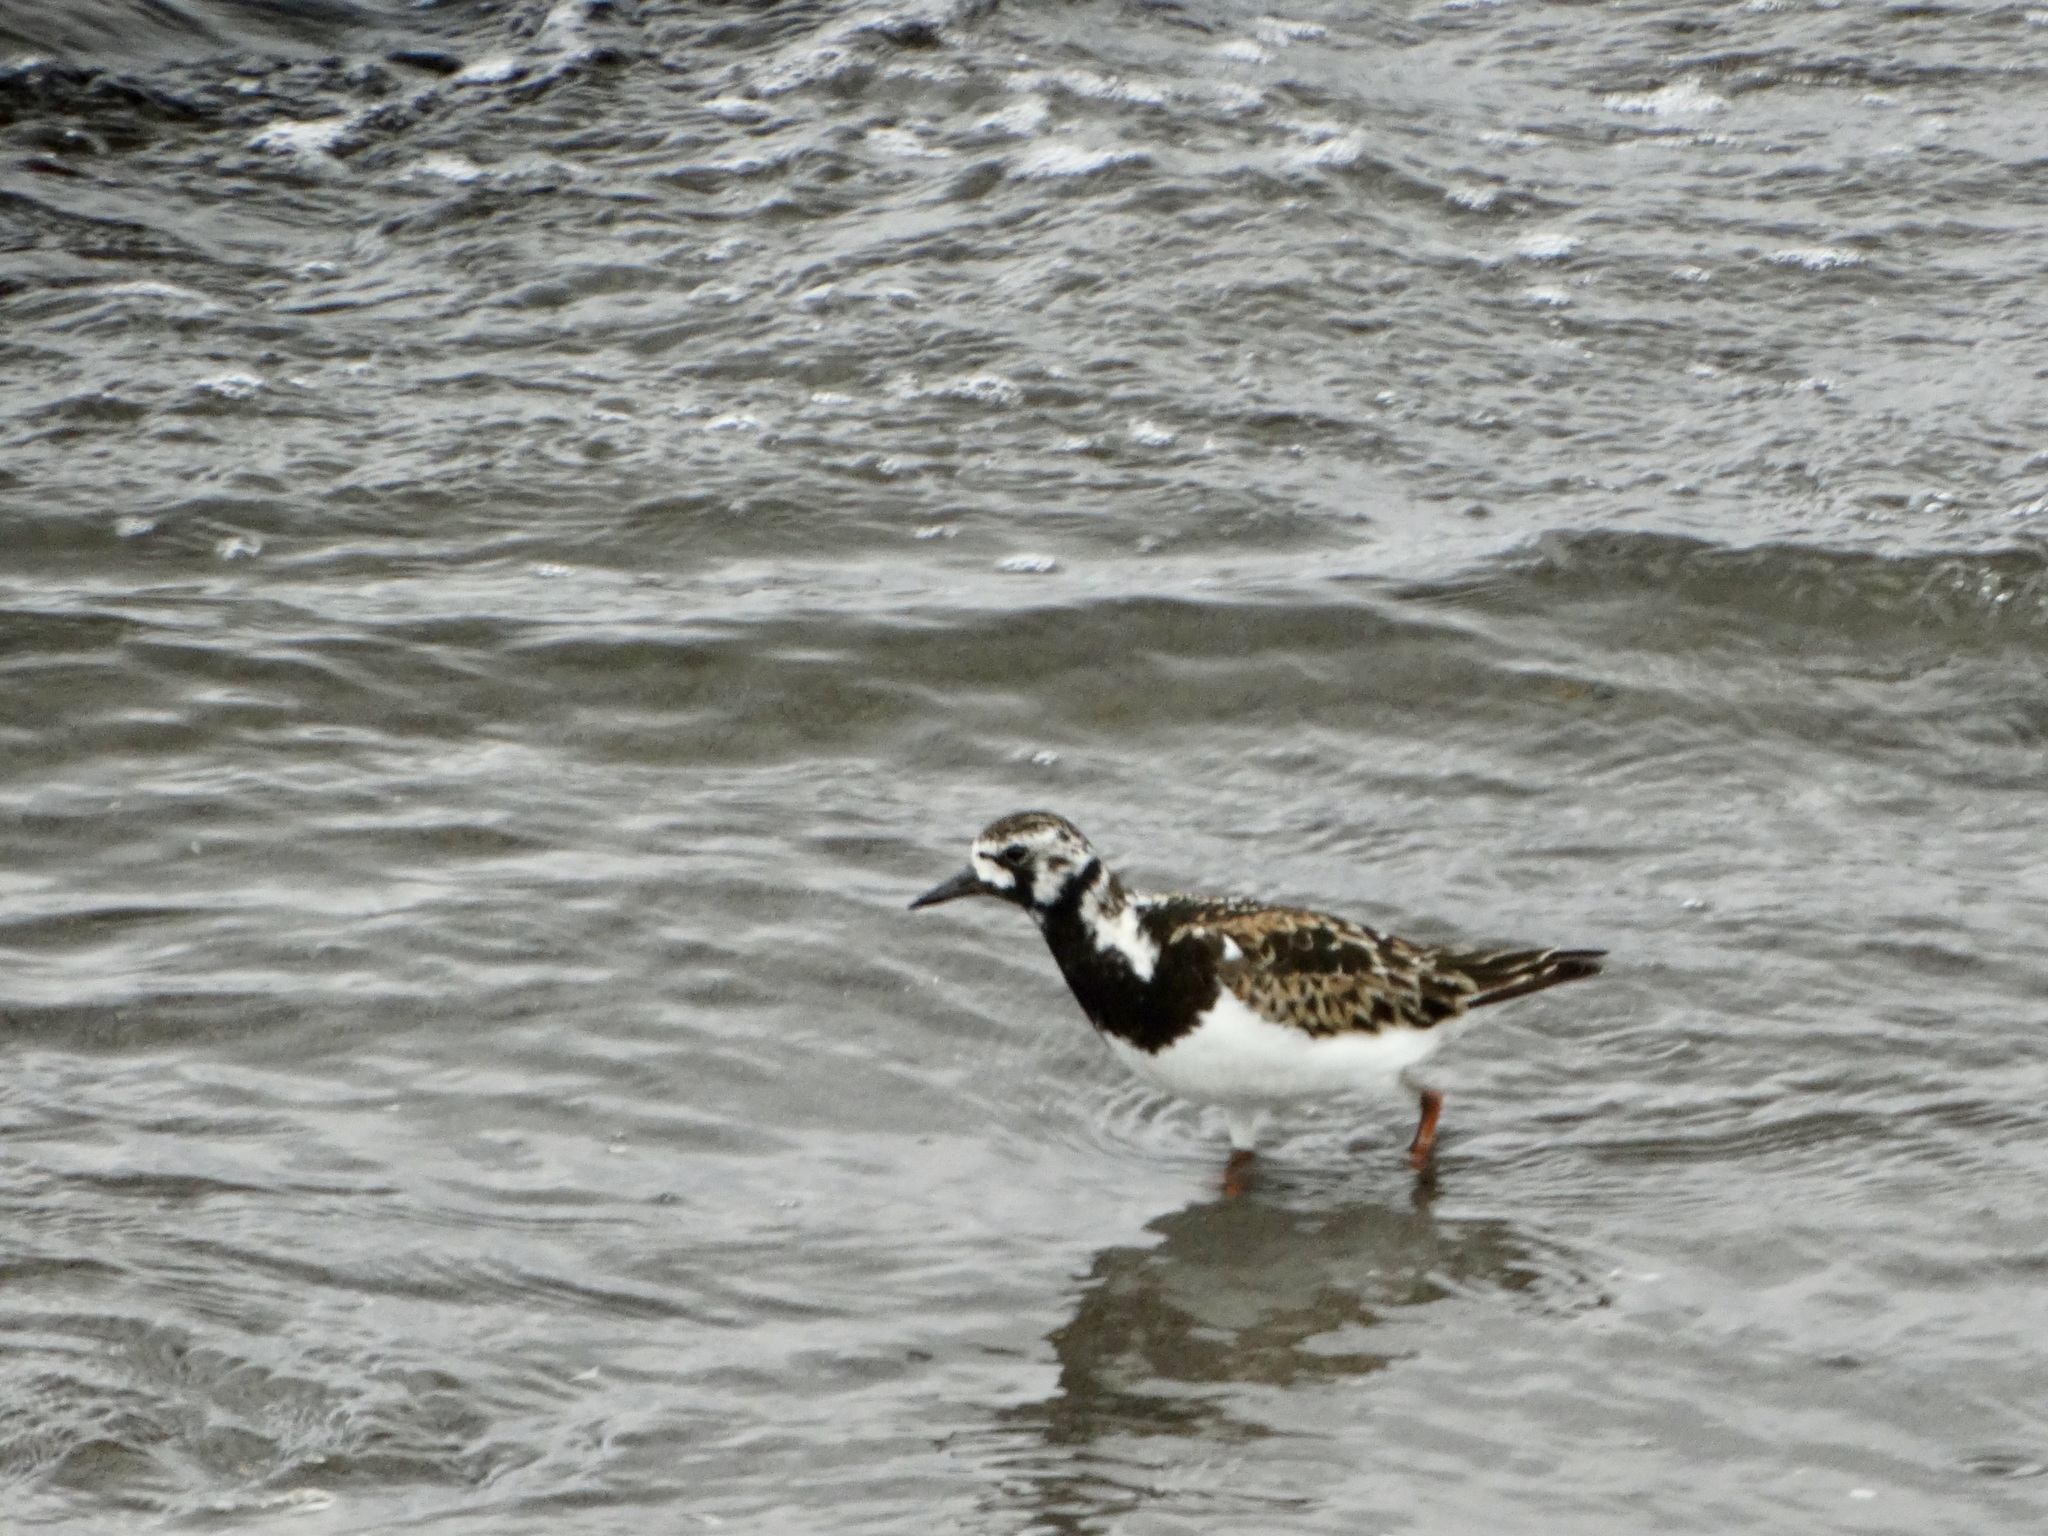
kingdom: Animalia
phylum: Chordata
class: Aves
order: Charadriiformes
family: Scolopacidae
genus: Arenaria
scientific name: Arenaria interpres
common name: Ruddy turnstone
